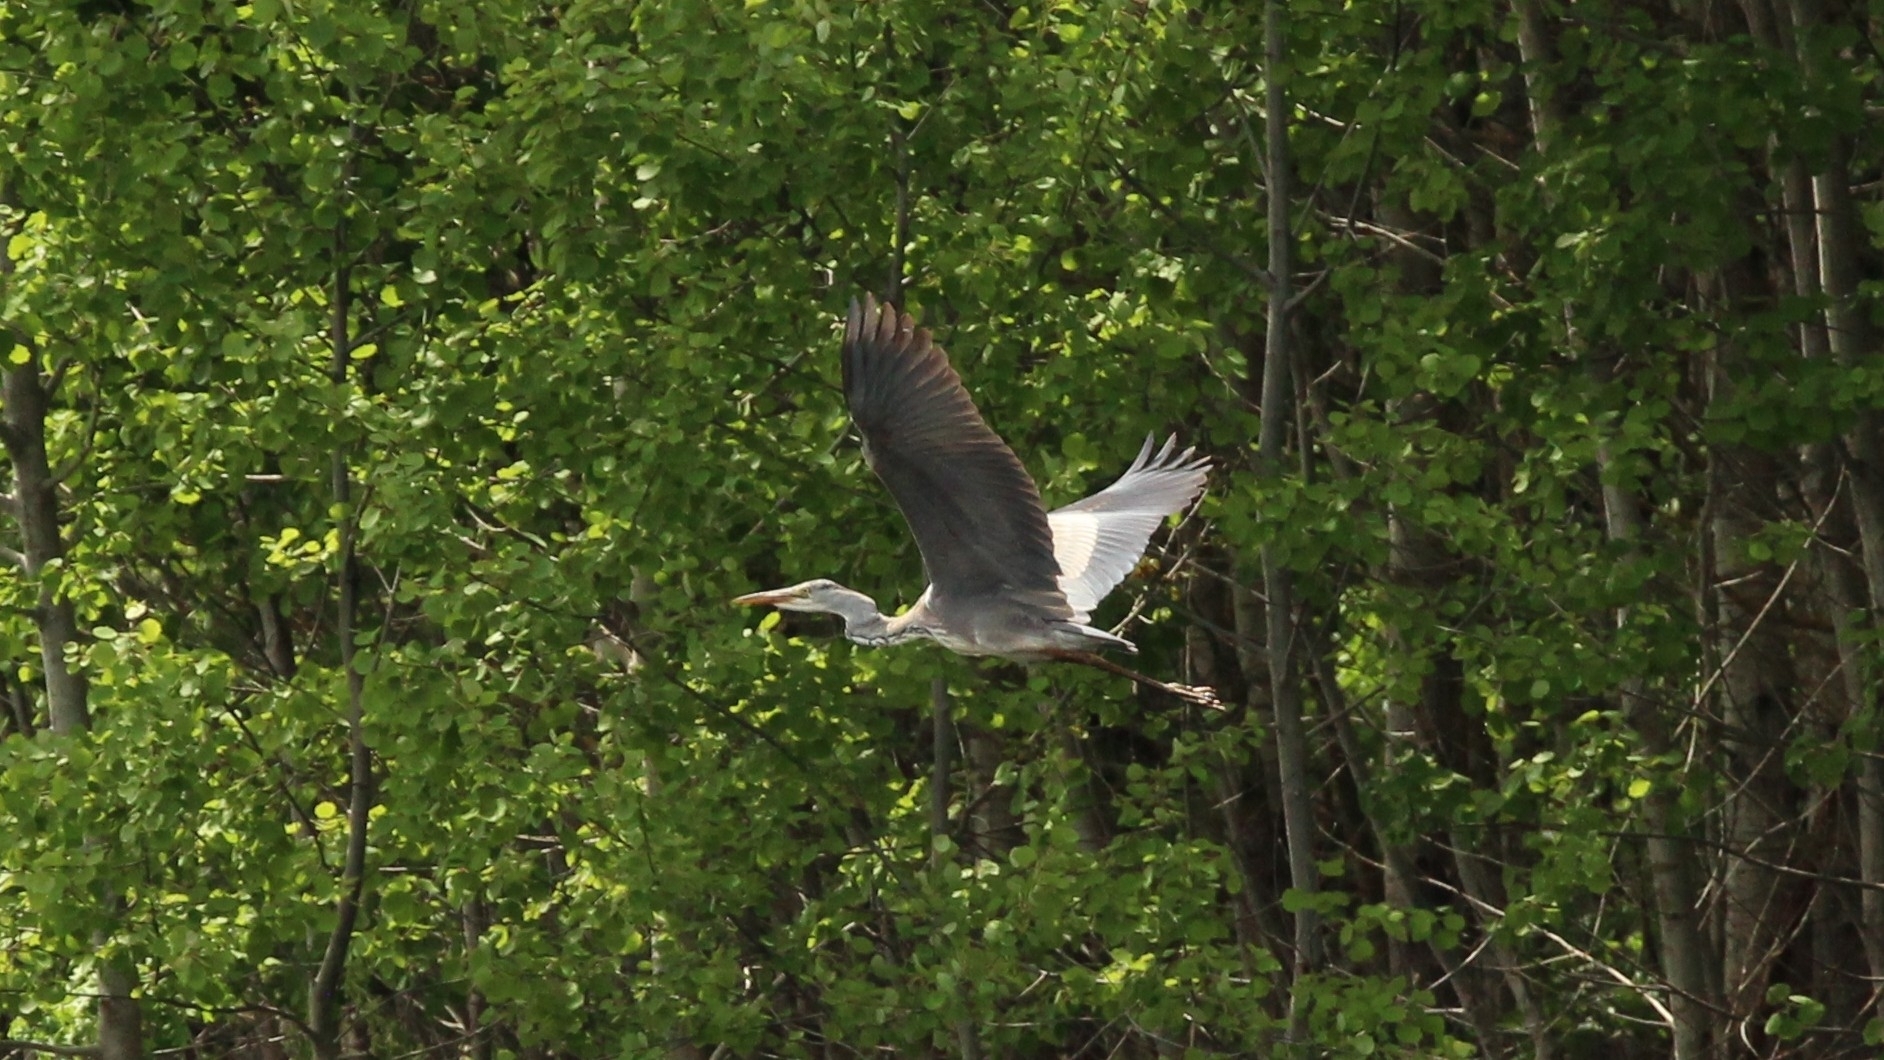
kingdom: Animalia
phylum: Chordata
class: Aves
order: Pelecaniformes
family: Ardeidae
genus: Ardea
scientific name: Ardea cinerea
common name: Grey heron
